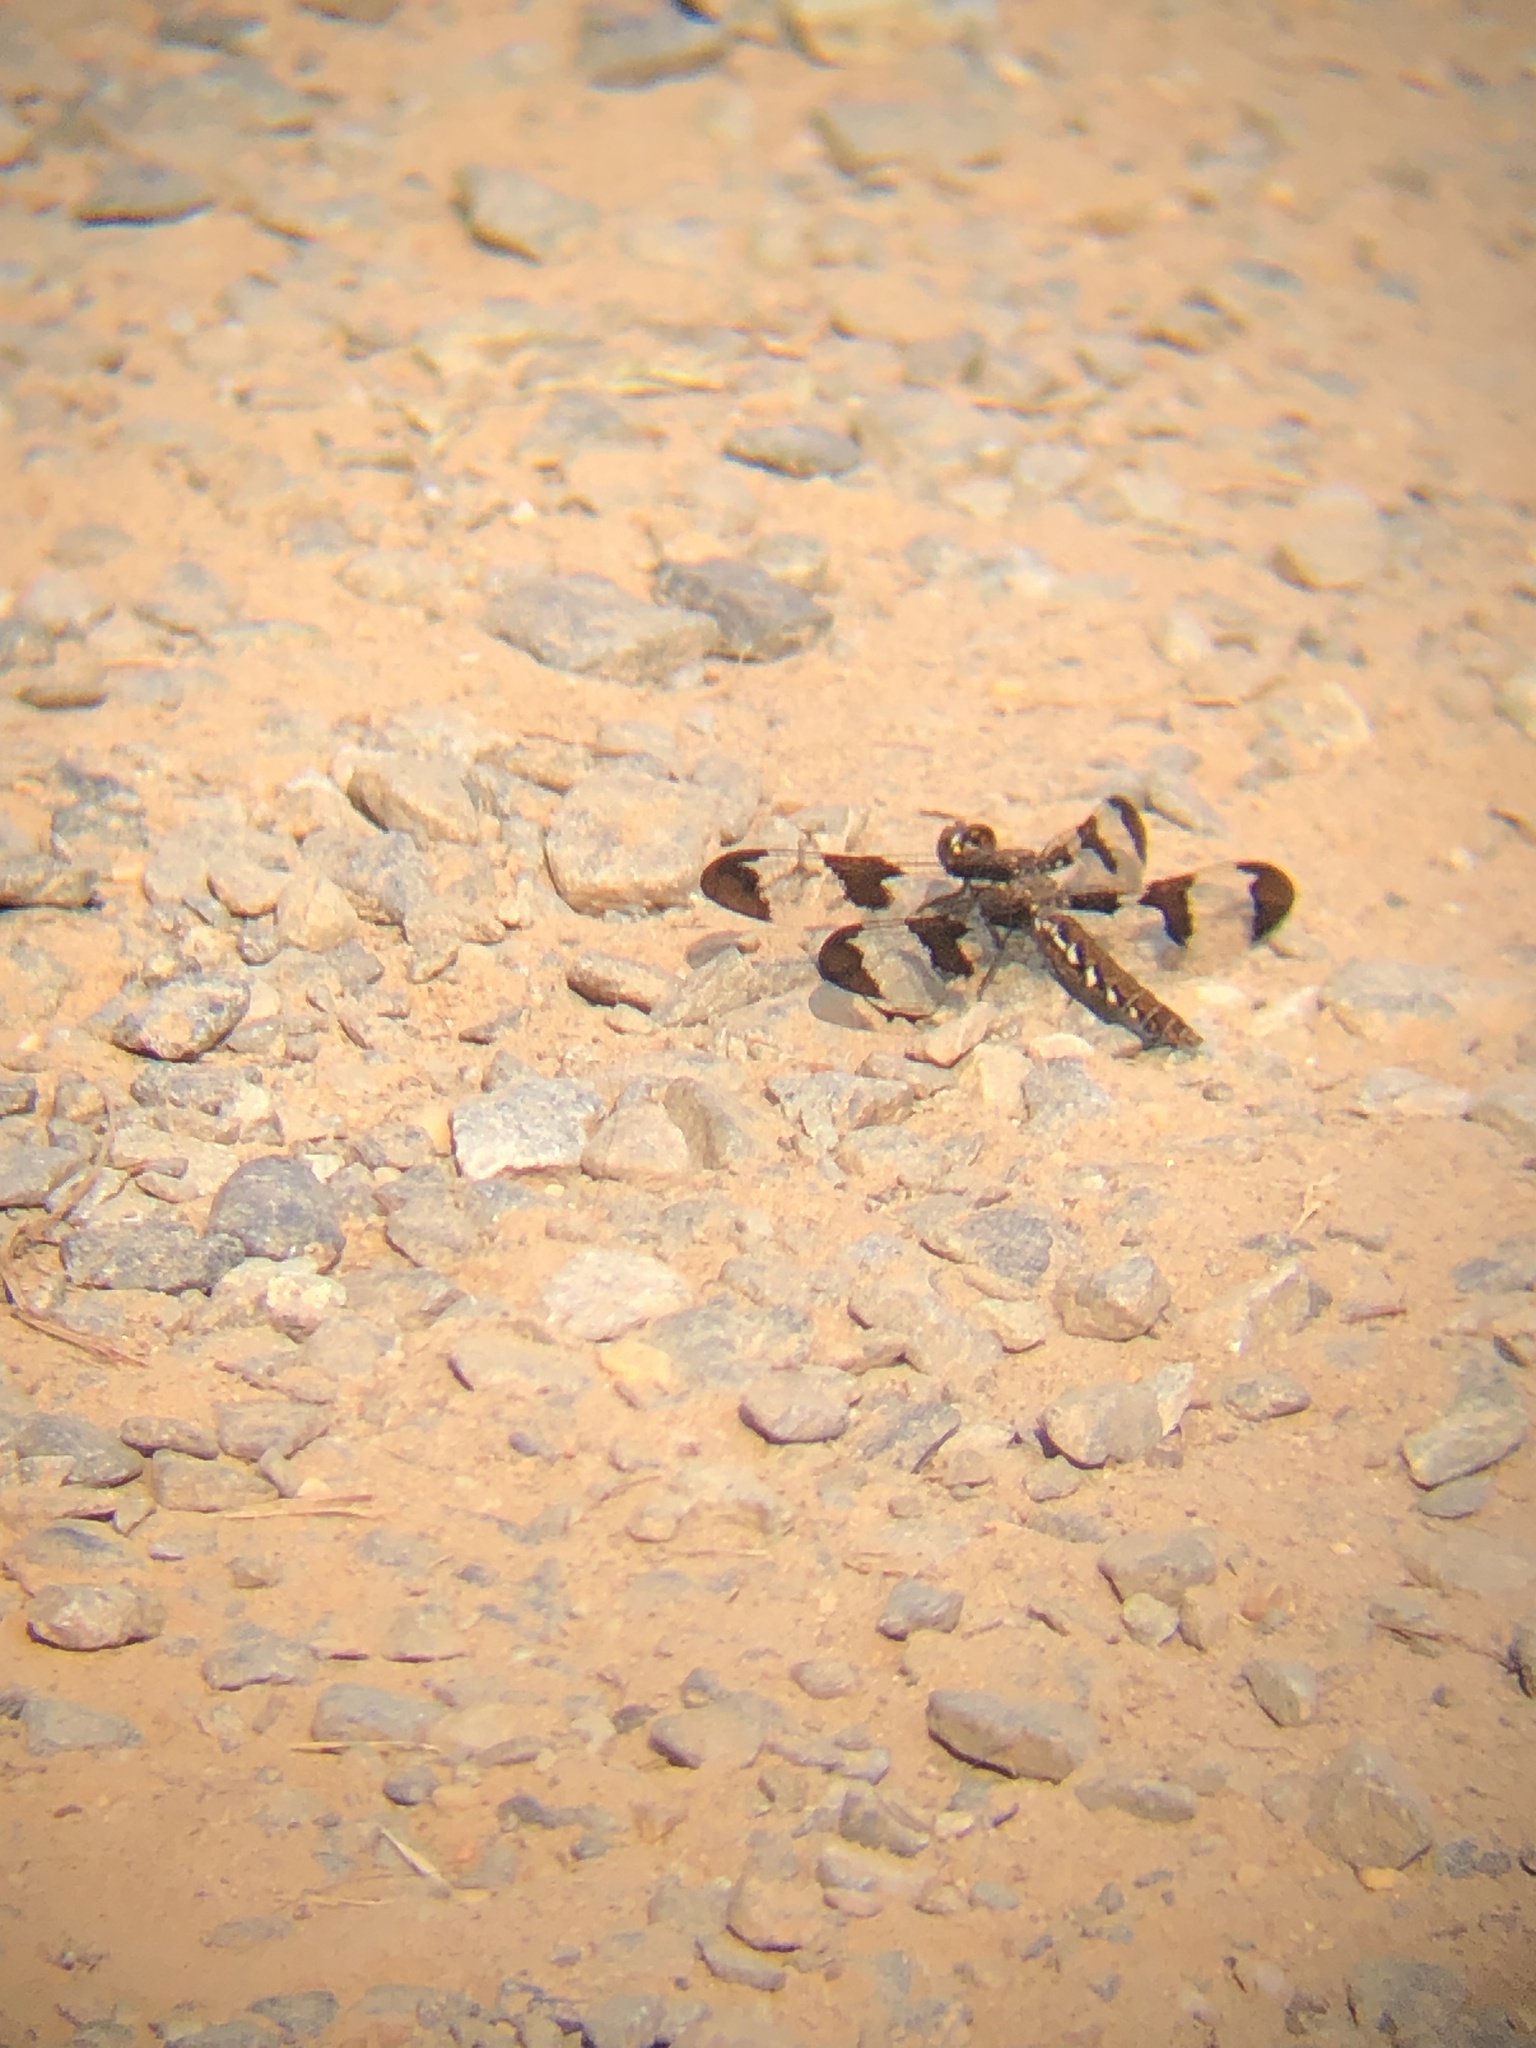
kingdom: Animalia
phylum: Arthropoda
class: Insecta
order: Odonata
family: Libellulidae
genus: Plathemis
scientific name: Plathemis lydia
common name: Common whitetail
